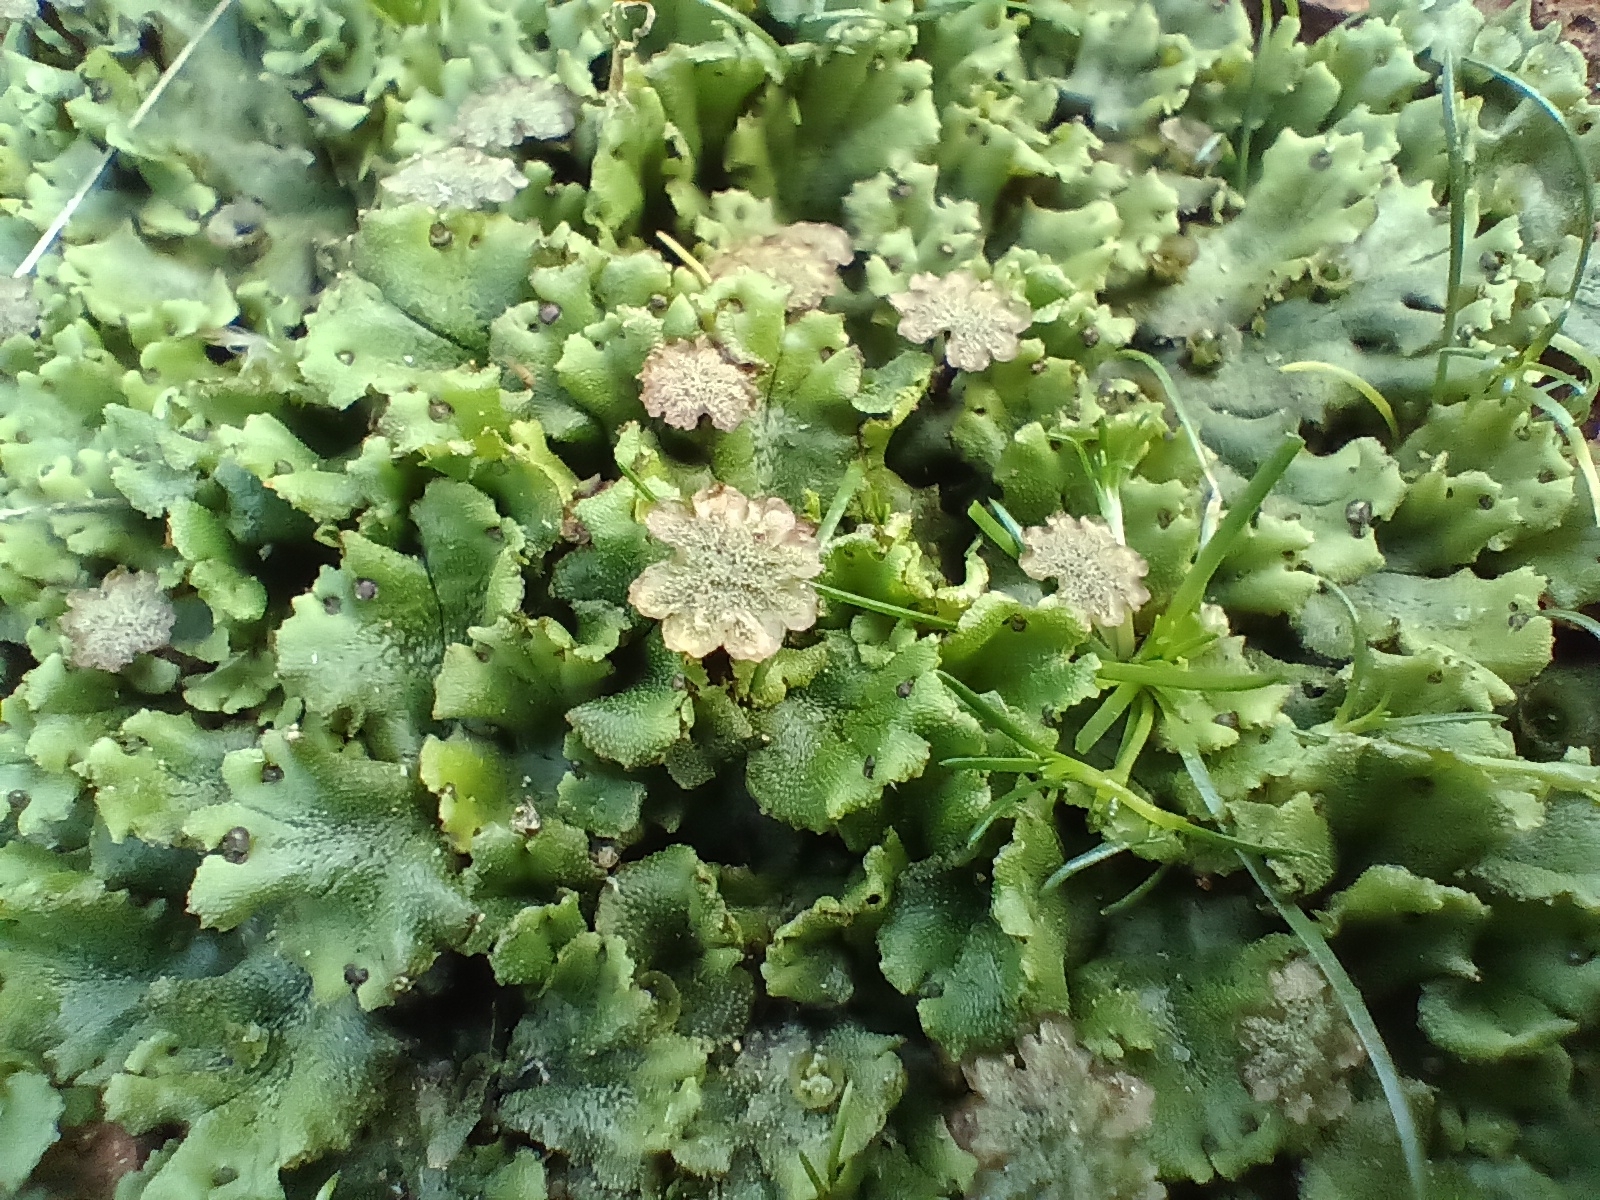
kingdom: Plantae
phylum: Marchantiophyta
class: Marchantiopsida
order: Marchantiales
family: Marchantiaceae
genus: Marchantia
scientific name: Marchantia polymorpha
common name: Common liverwort
